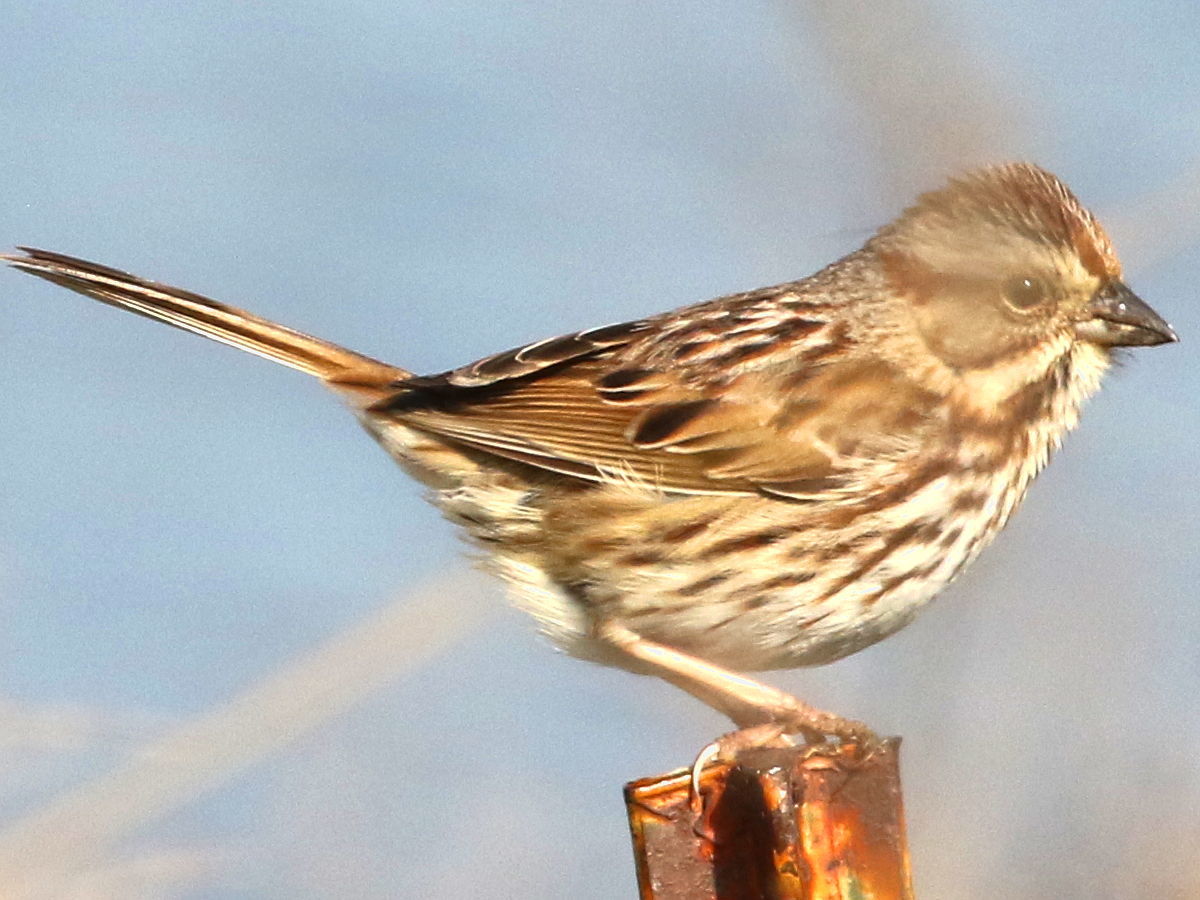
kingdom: Animalia
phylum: Chordata
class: Aves
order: Passeriformes
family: Passerellidae
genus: Melospiza
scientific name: Melospiza melodia
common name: Song sparrow
